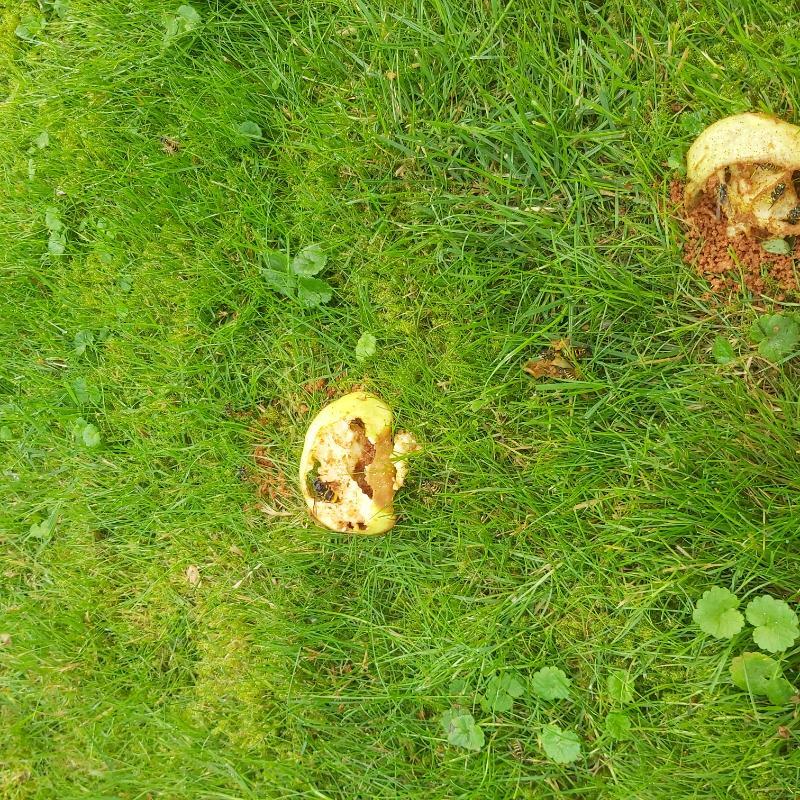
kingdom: Animalia
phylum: Arthropoda
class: Insecta
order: Hymenoptera
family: Vespidae
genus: Vespa
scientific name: Vespa velutina
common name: Asian hornet
